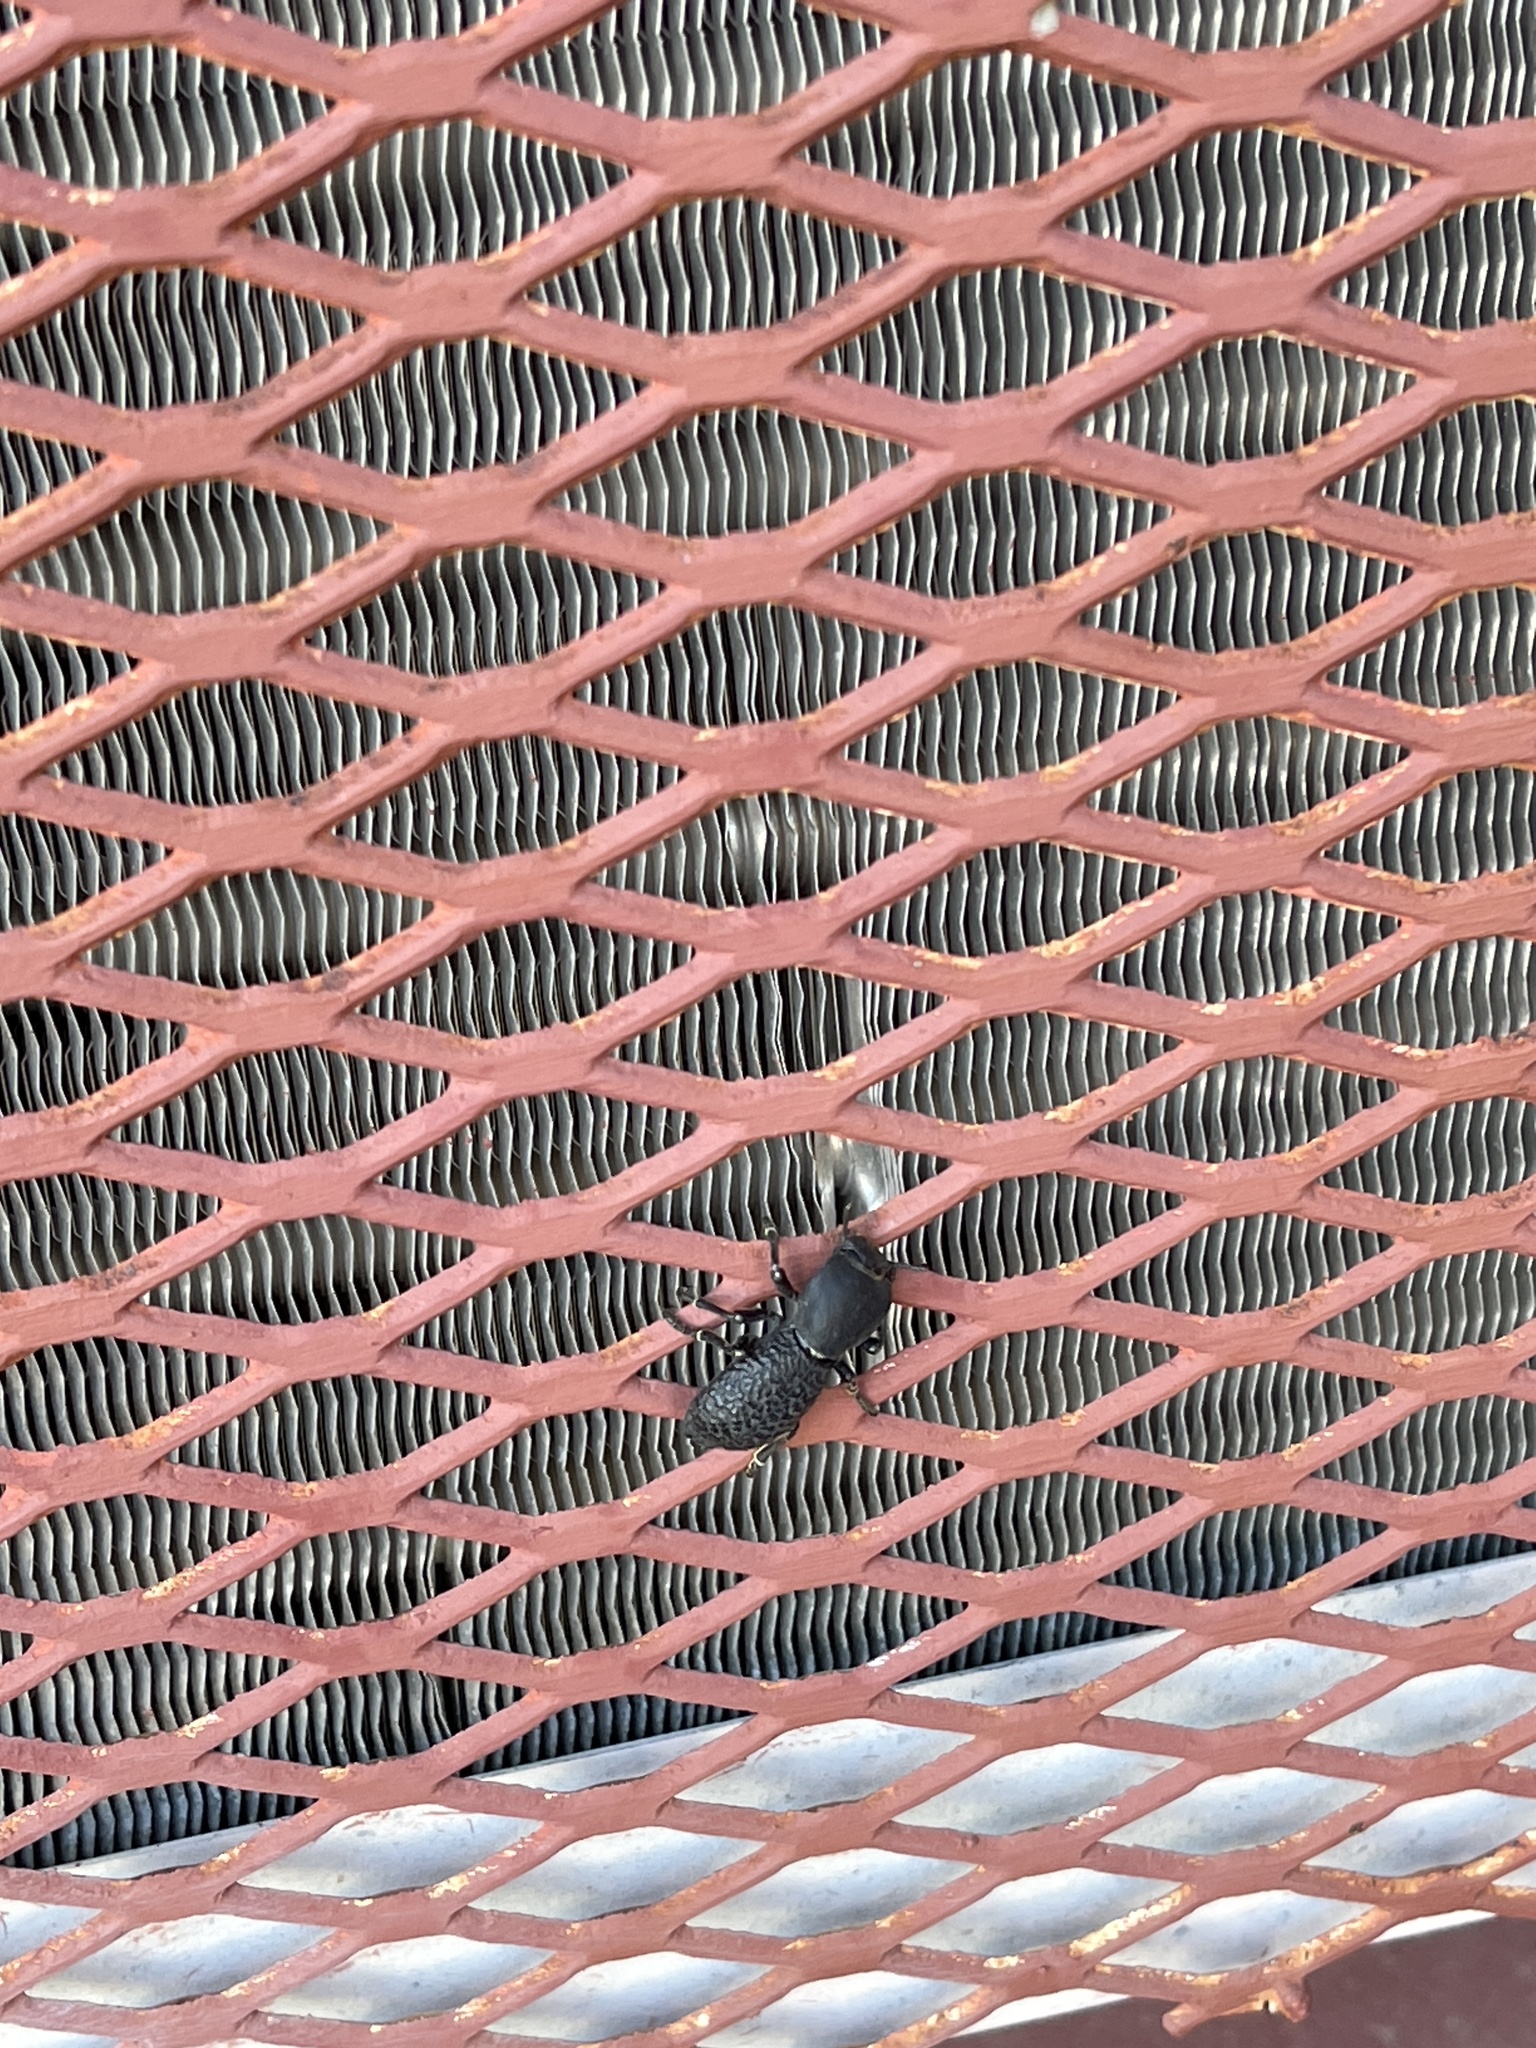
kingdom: Animalia
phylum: Arthropoda
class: Insecta
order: Coleoptera
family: Zopheridae
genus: Zopherus
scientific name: Zopherus concolor
